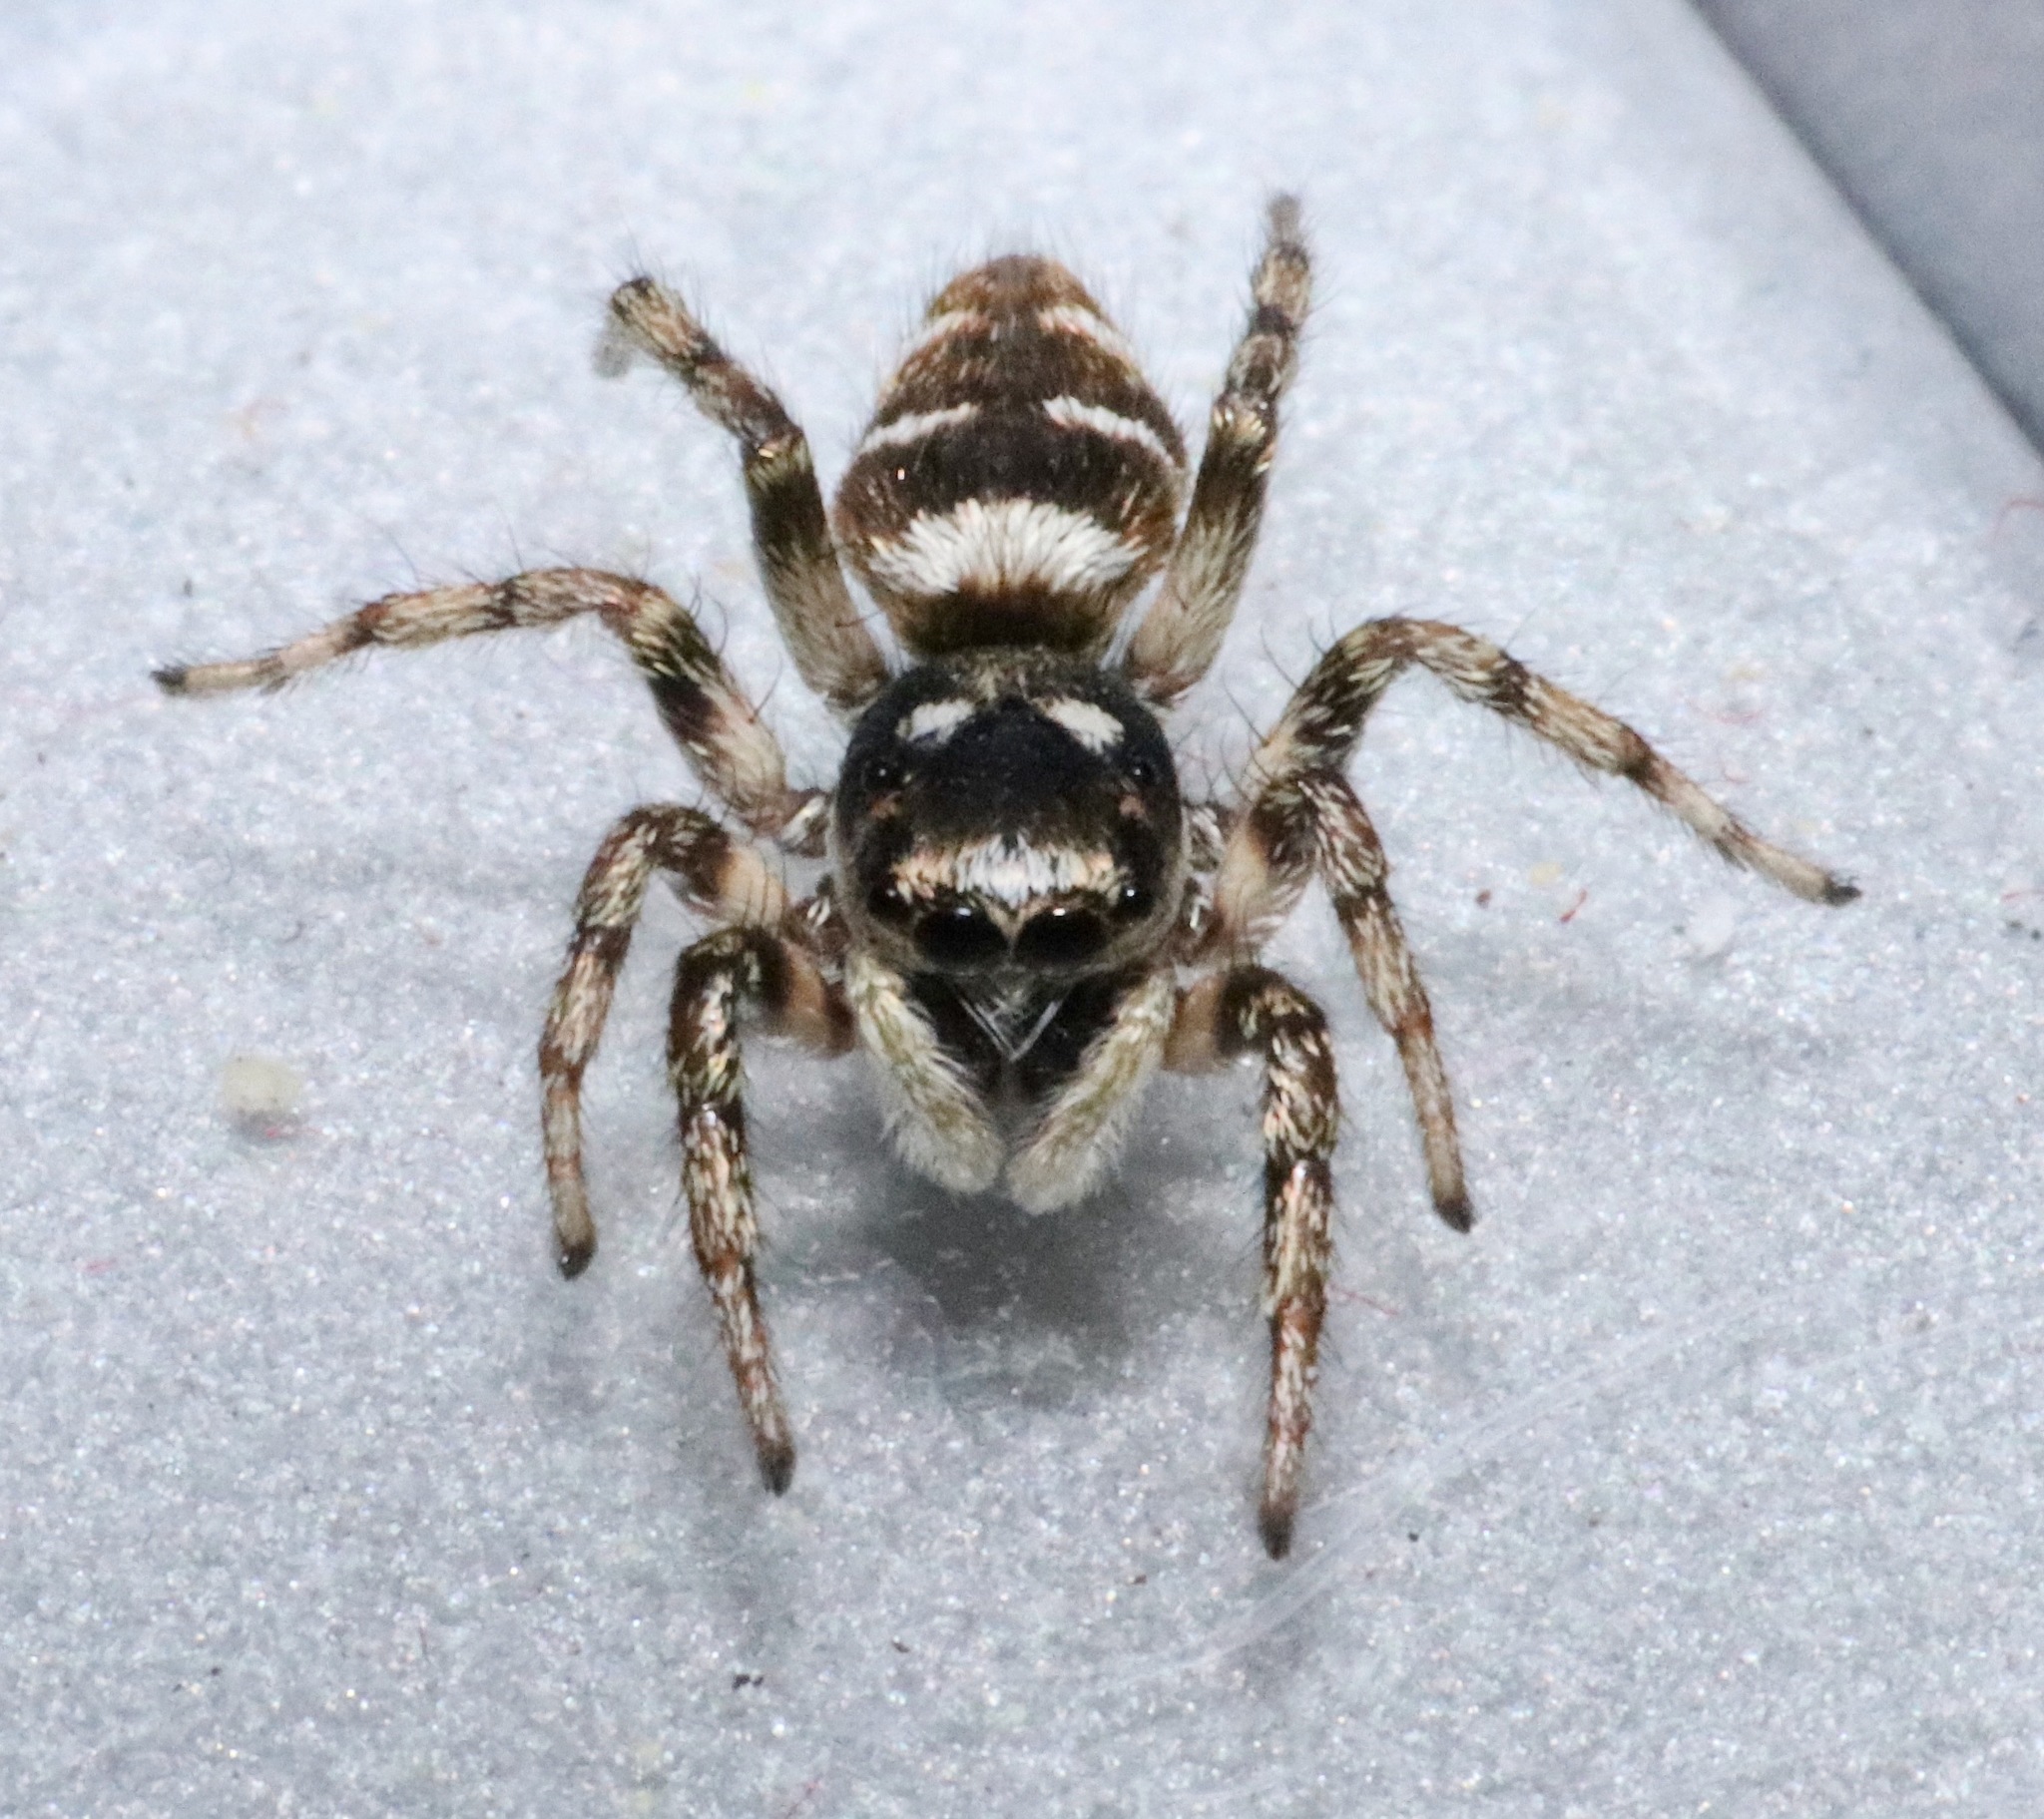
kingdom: Animalia
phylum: Arthropoda
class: Arachnida
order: Araneae
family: Salticidae
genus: Salticus
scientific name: Salticus scenicus
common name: Zebra jumper
